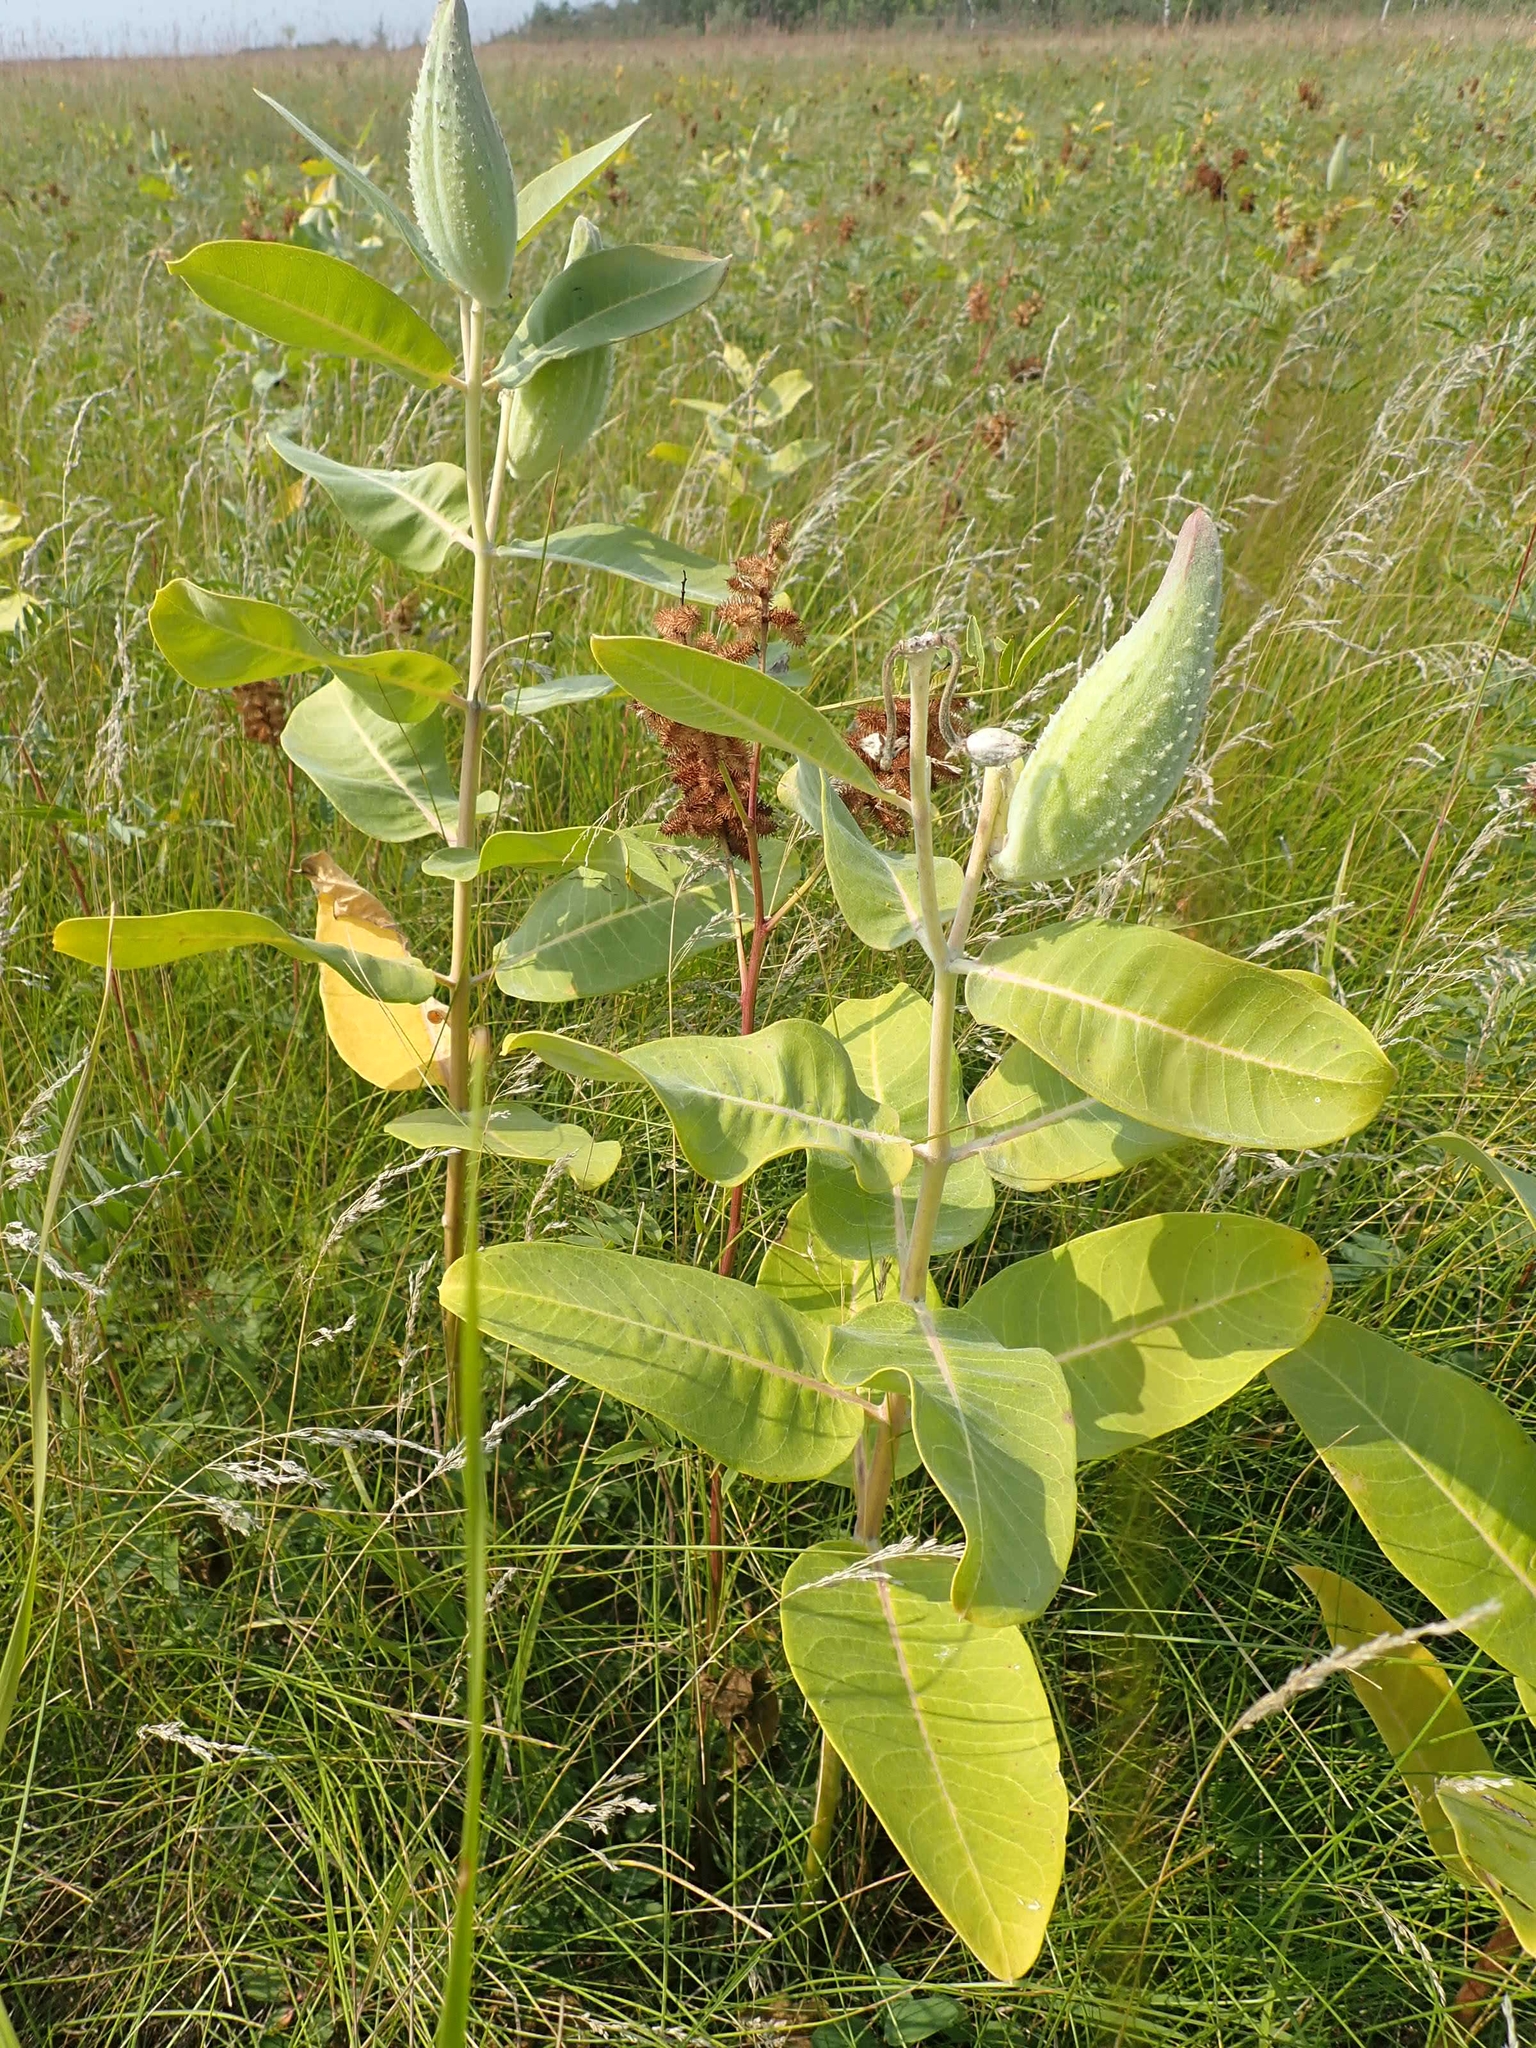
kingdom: Plantae
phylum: Tracheophyta
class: Magnoliopsida
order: Gentianales
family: Apocynaceae
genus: Asclepias
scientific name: Asclepias syriaca
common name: Common milkweed
